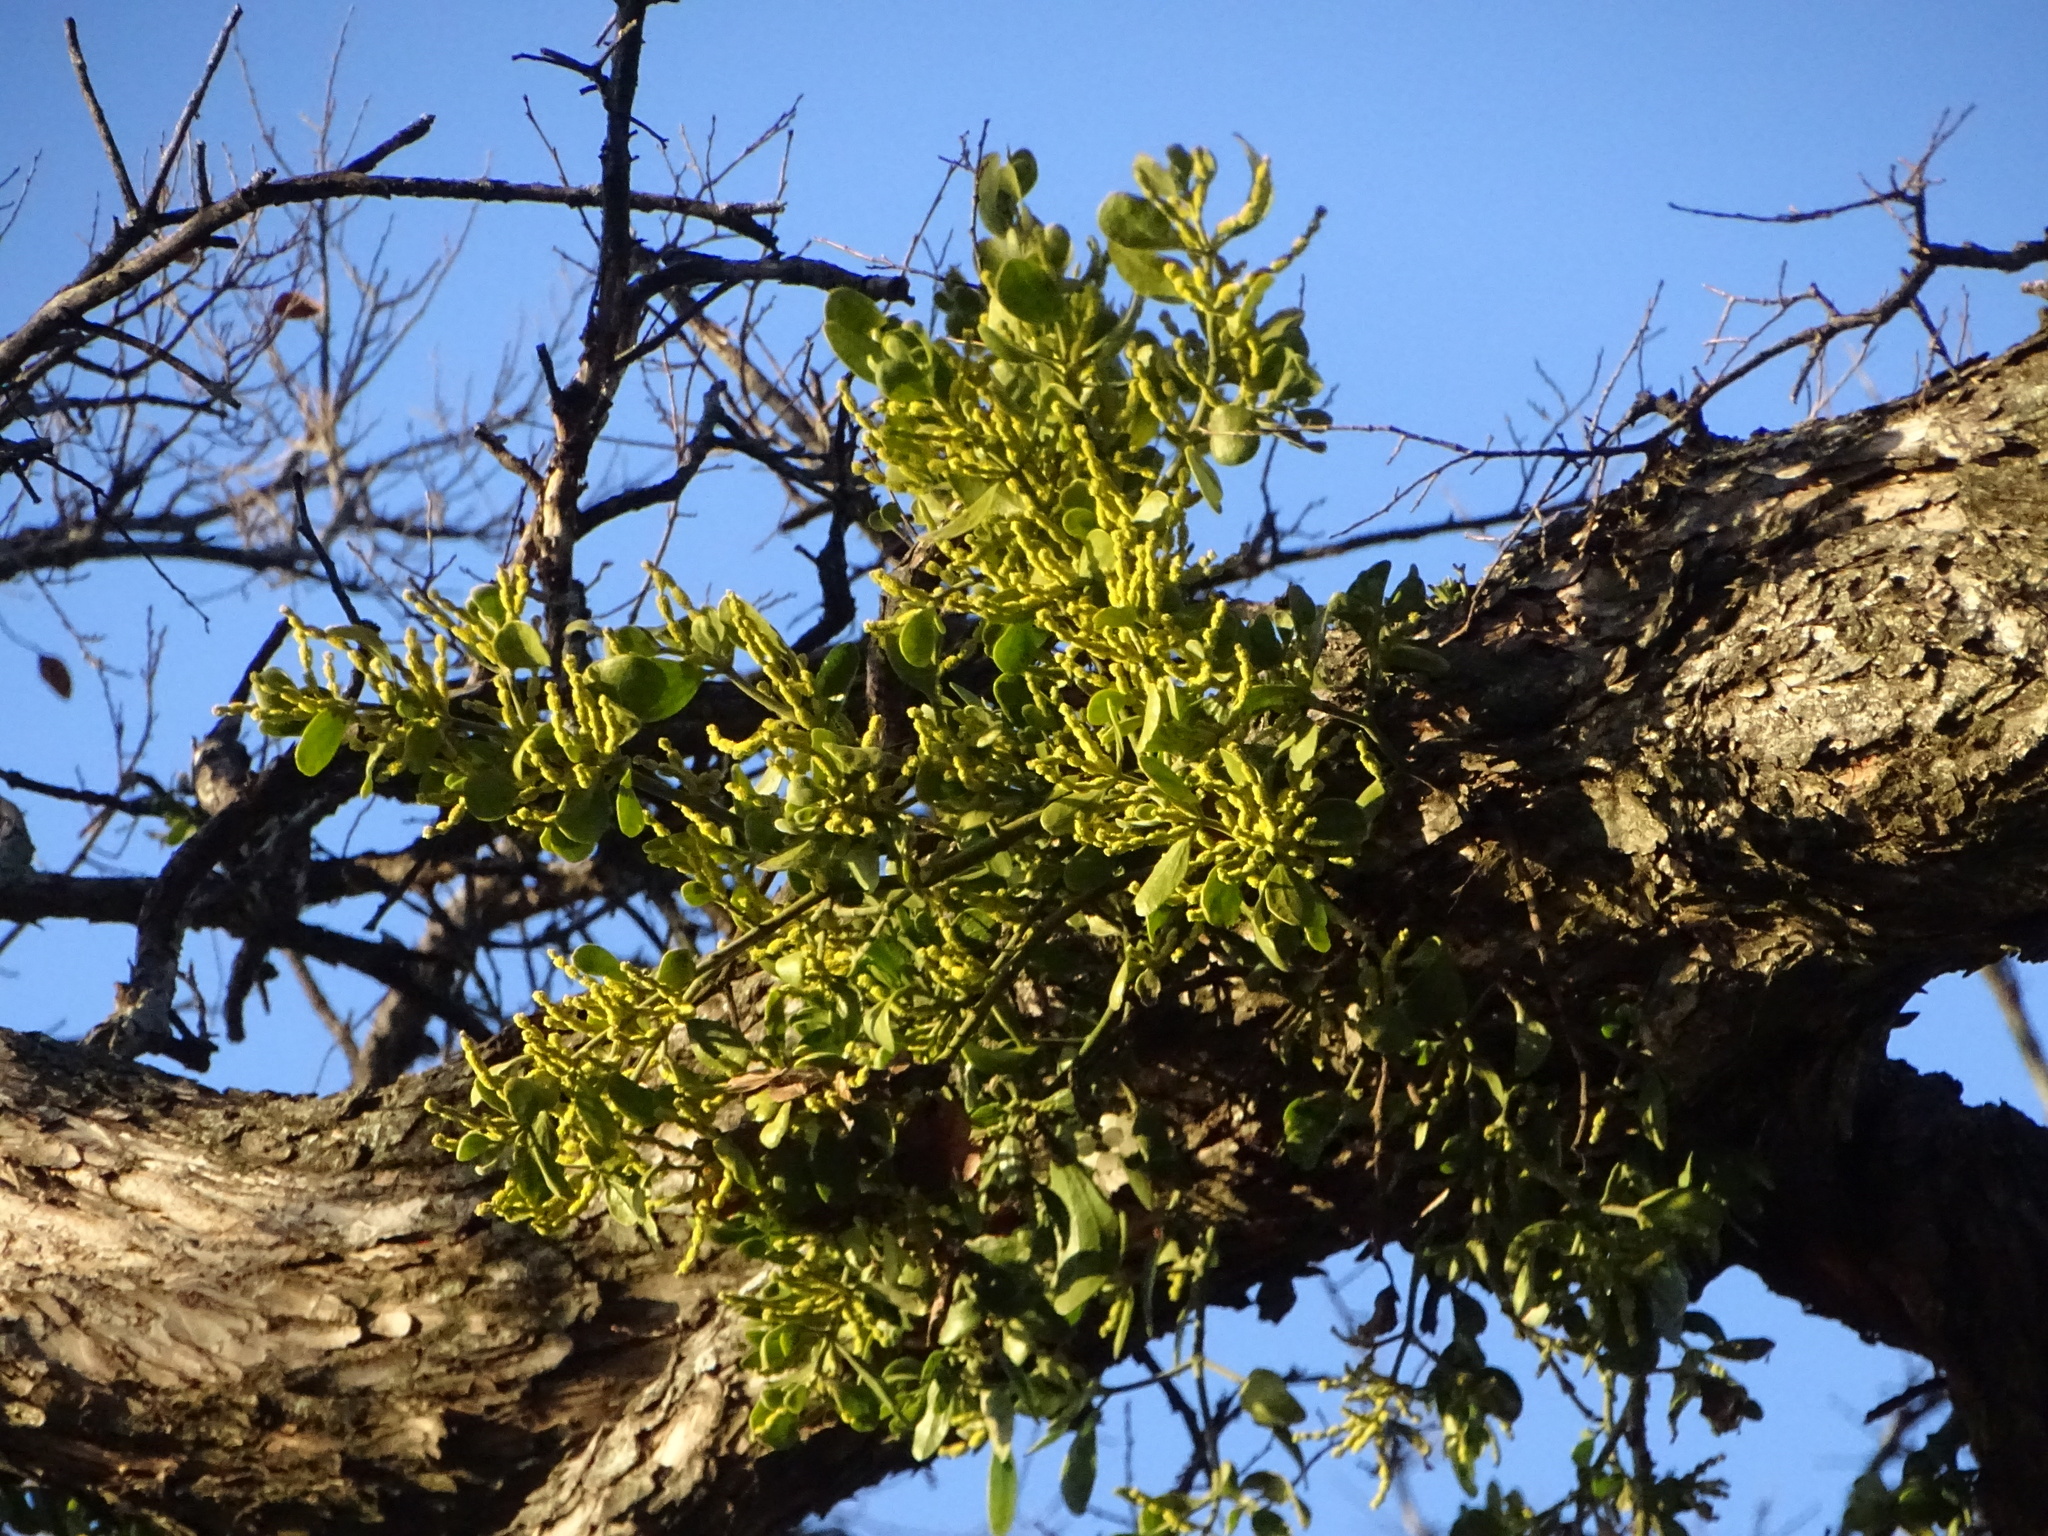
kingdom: Plantae
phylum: Tracheophyta
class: Magnoliopsida
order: Santalales
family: Viscaceae
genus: Phoradendron
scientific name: Phoradendron leucarpum
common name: Pacific mistletoe
